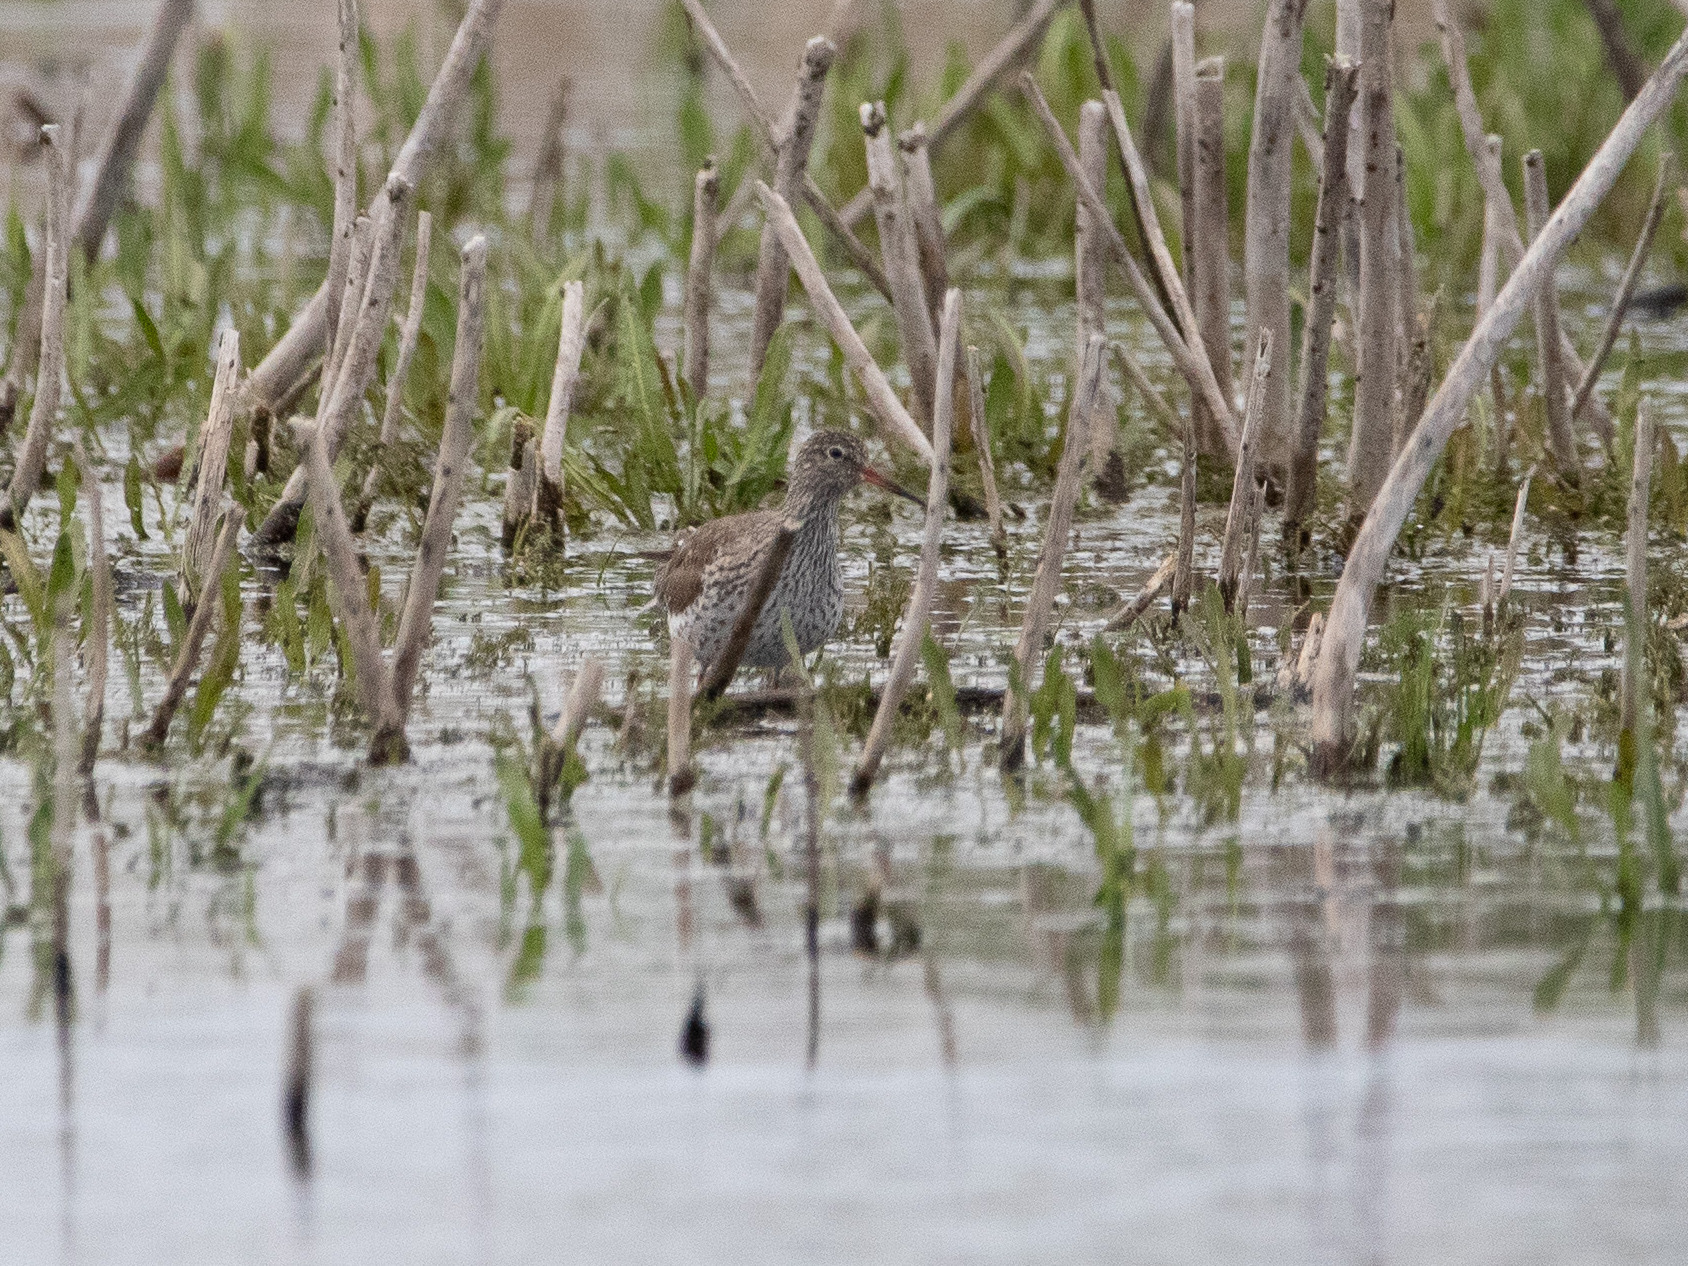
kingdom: Animalia
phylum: Chordata
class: Aves
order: Charadriiformes
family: Scolopacidae
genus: Tringa
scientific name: Tringa totanus
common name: Common redshank
